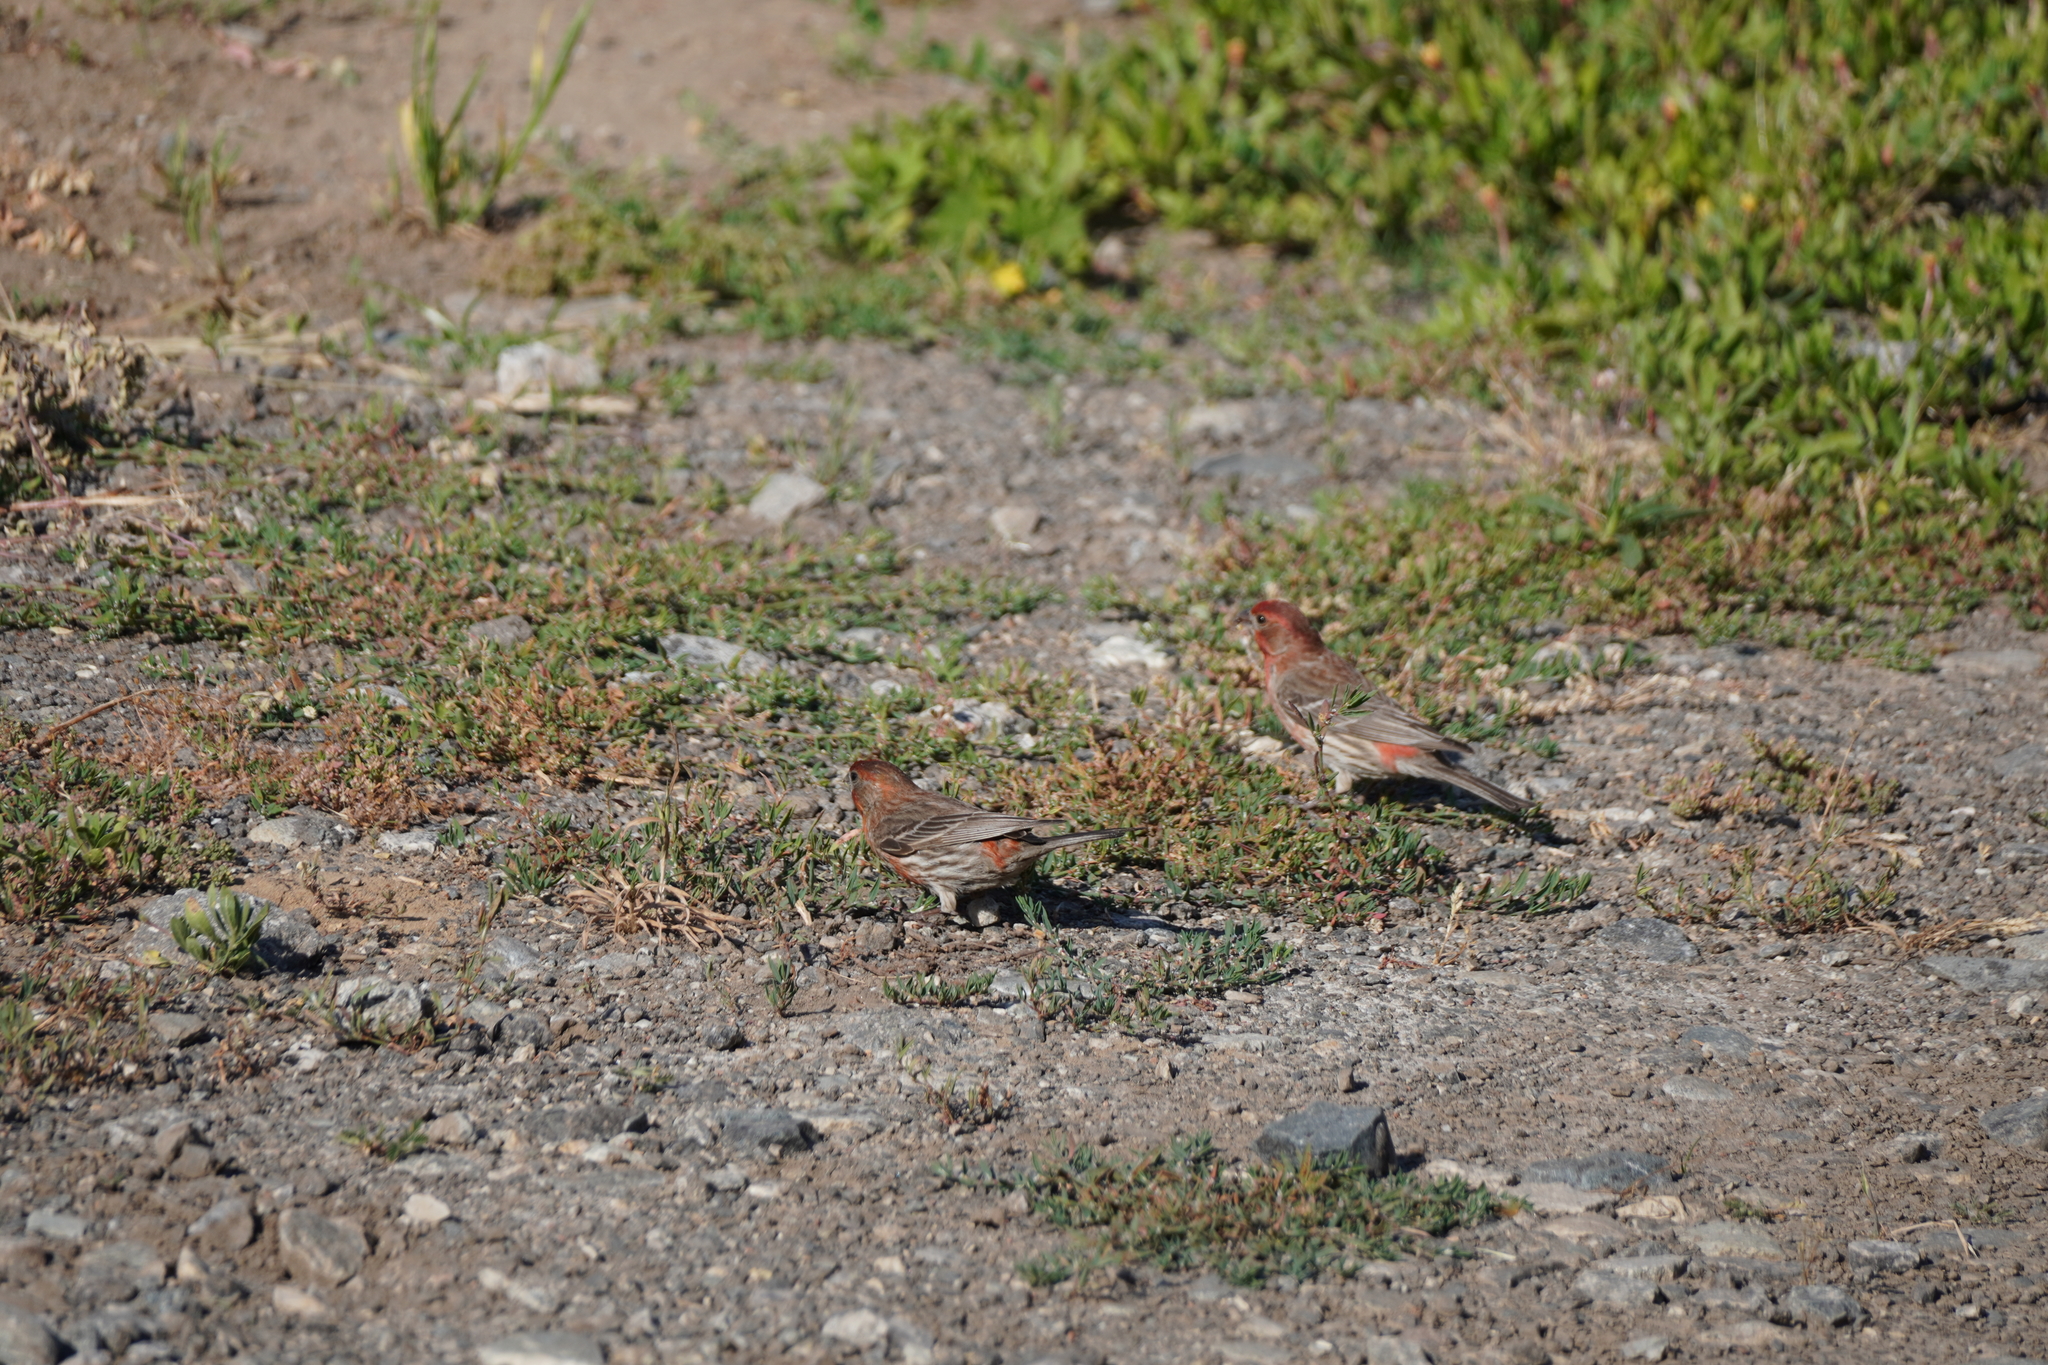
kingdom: Animalia
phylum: Chordata
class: Aves
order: Passeriformes
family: Fringillidae
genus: Haemorhous
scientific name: Haemorhous mexicanus
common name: House finch
